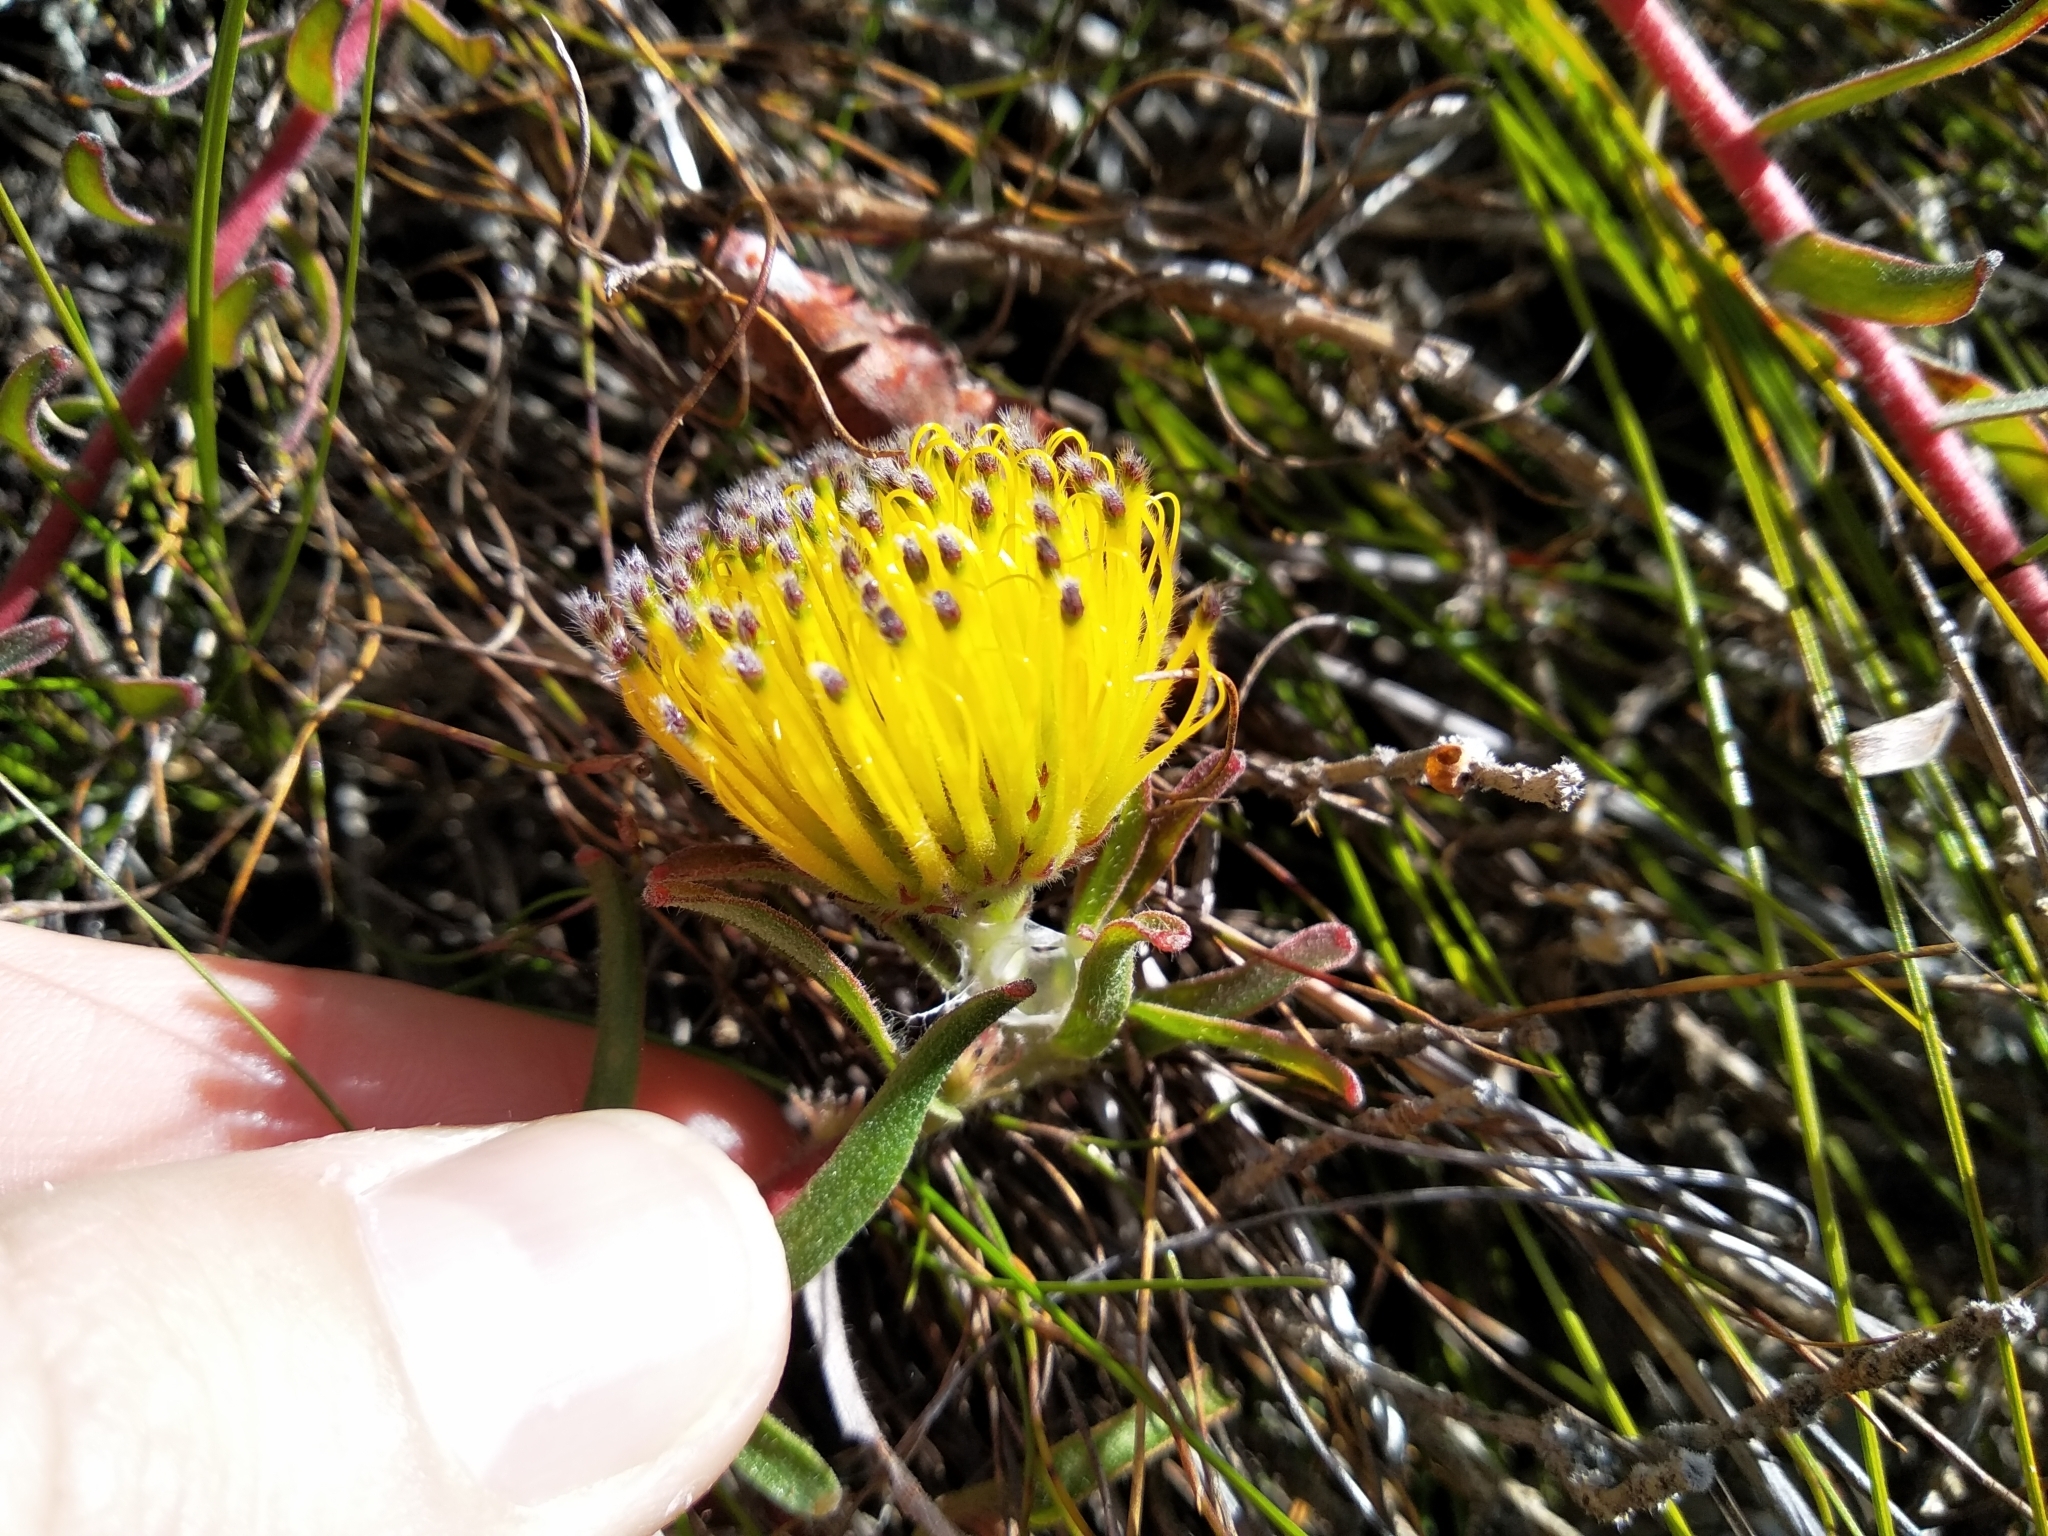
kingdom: Plantae
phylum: Tracheophyta
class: Magnoliopsida
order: Proteales
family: Proteaceae
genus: Leucospermum
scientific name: Leucospermum gracile
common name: Hermanus pincushion
